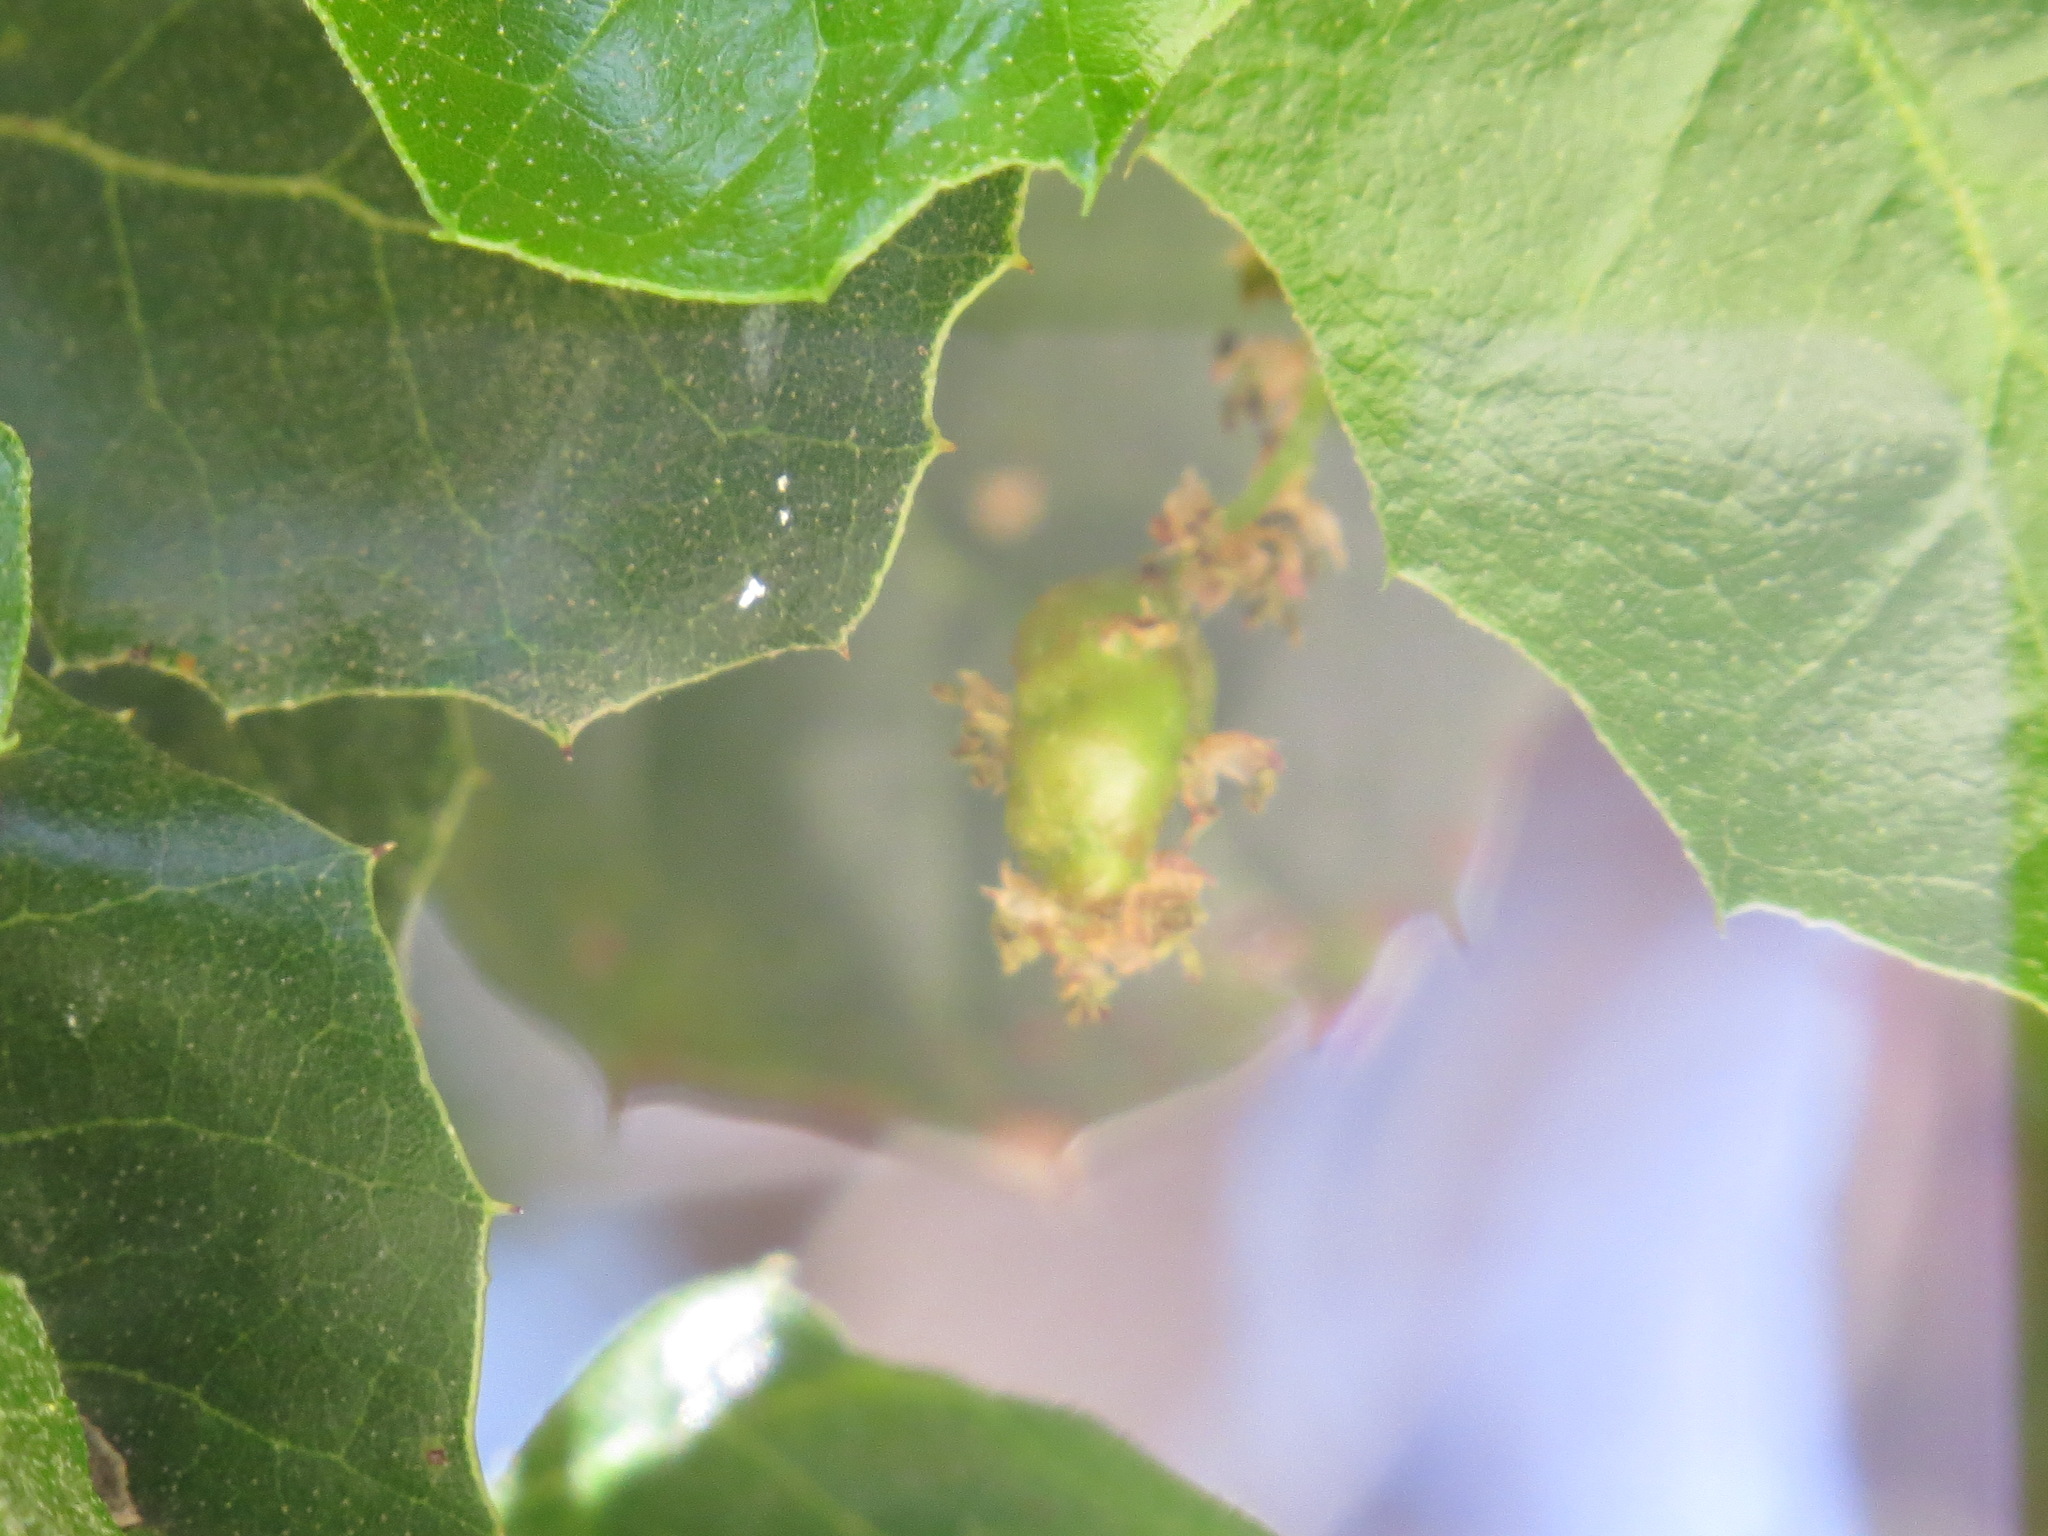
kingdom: Animalia
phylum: Arthropoda
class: Insecta
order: Hymenoptera
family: Cynipidae
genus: Callirhytis
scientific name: Callirhytis
